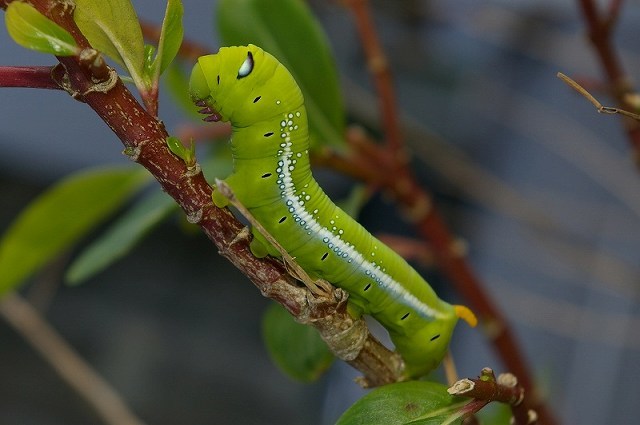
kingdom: Animalia
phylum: Arthropoda
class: Insecta
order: Lepidoptera
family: Sphingidae
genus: Daphnis
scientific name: Daphnis nerii
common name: Oleander hawk-moth
